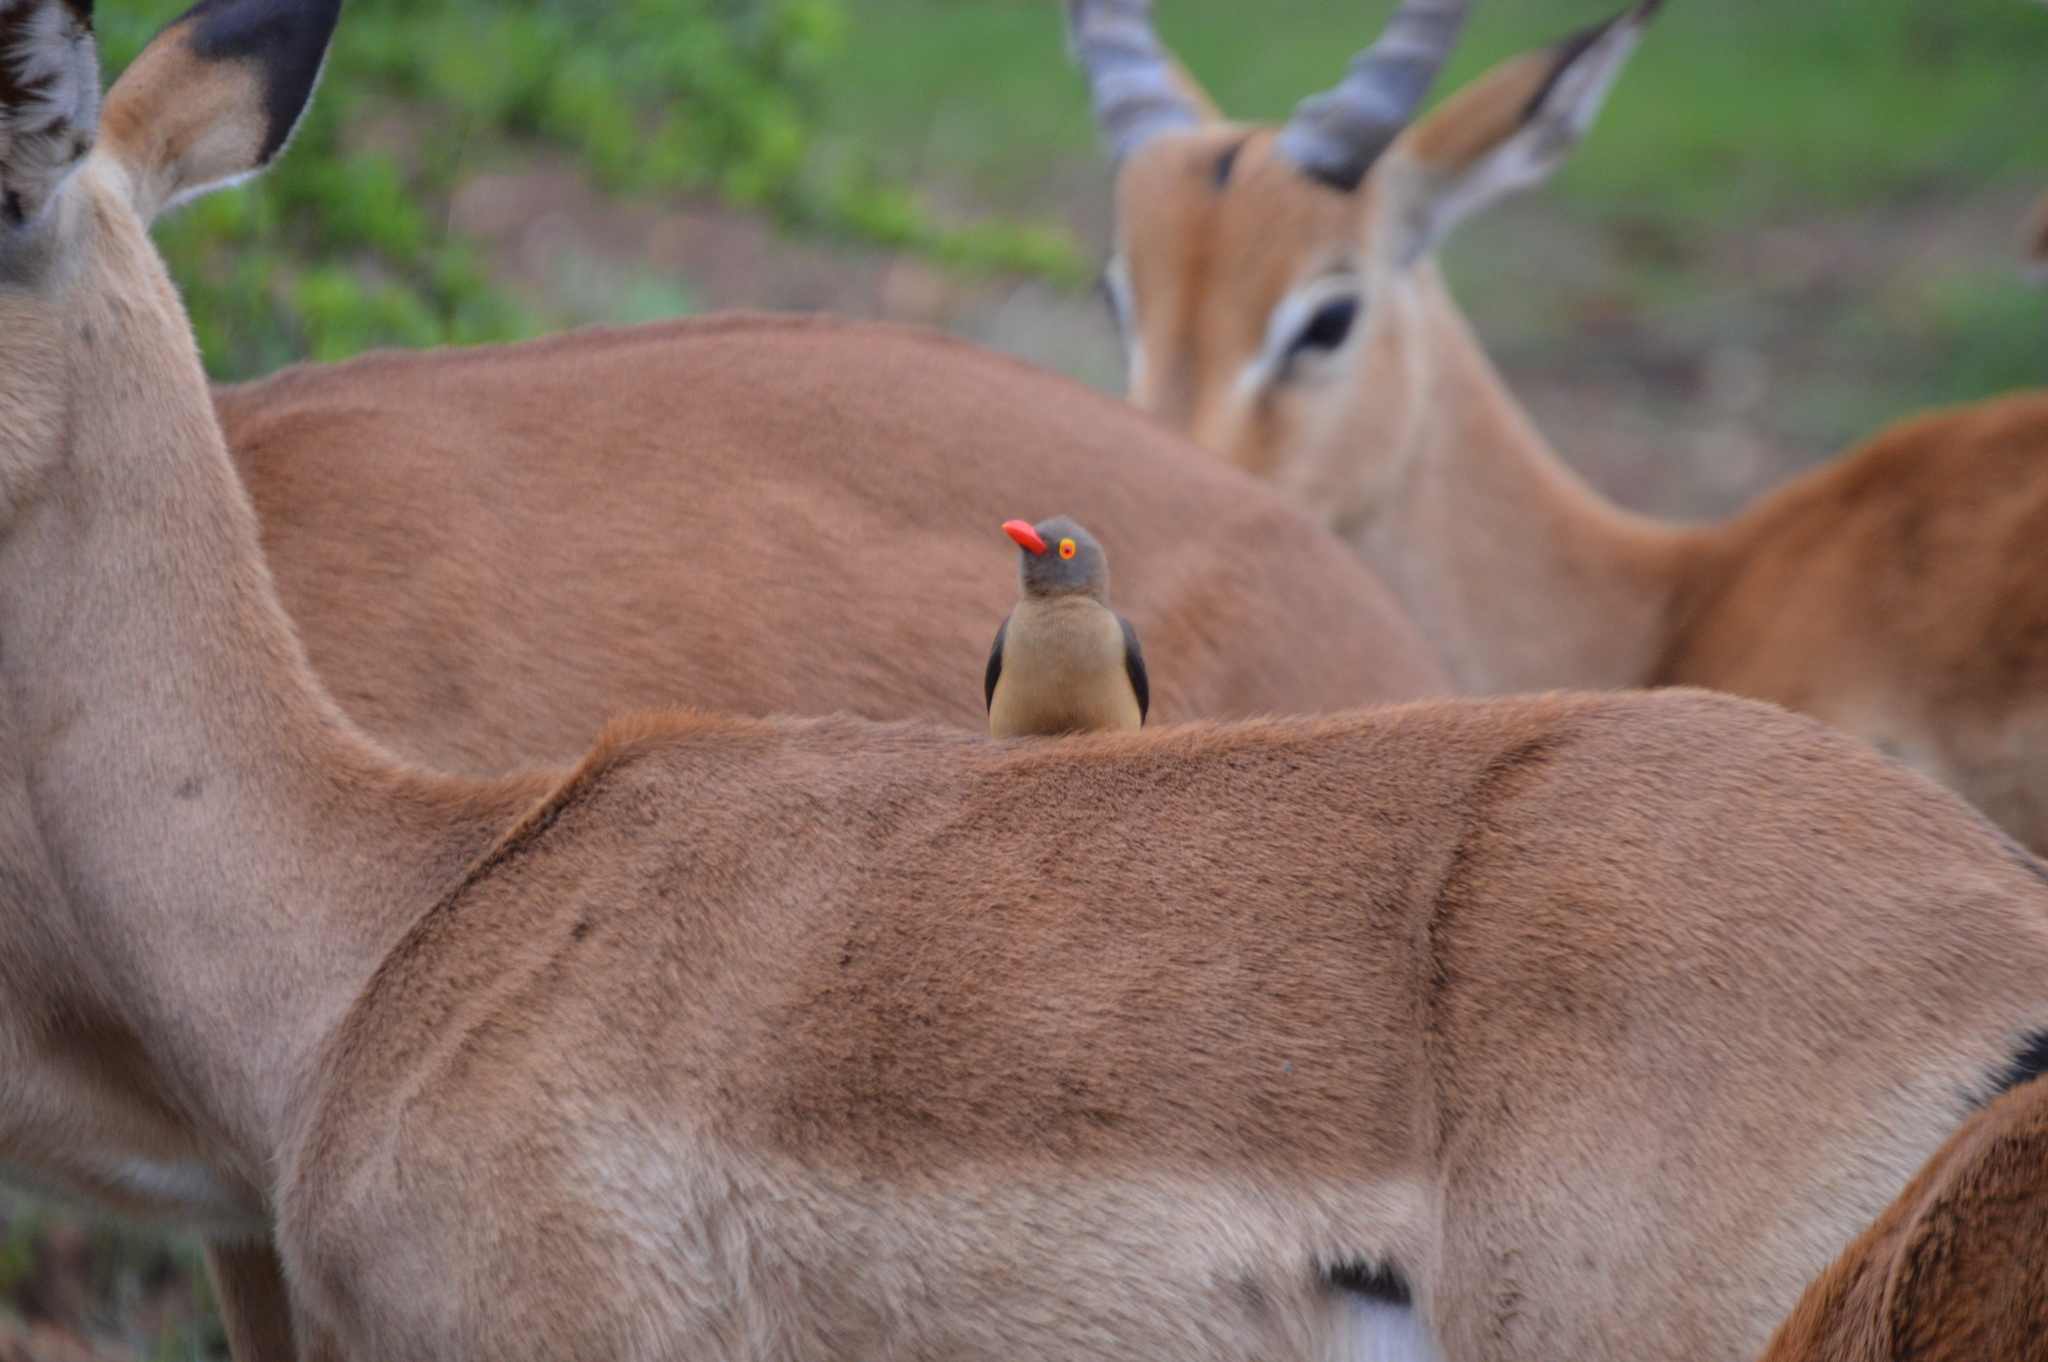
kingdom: Animalia
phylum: Chordata
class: Aves
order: Passeriformes
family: Buphagidae
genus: Buphagus
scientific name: Buphagus erythrorhynchus
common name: Red-billed oxpecker
